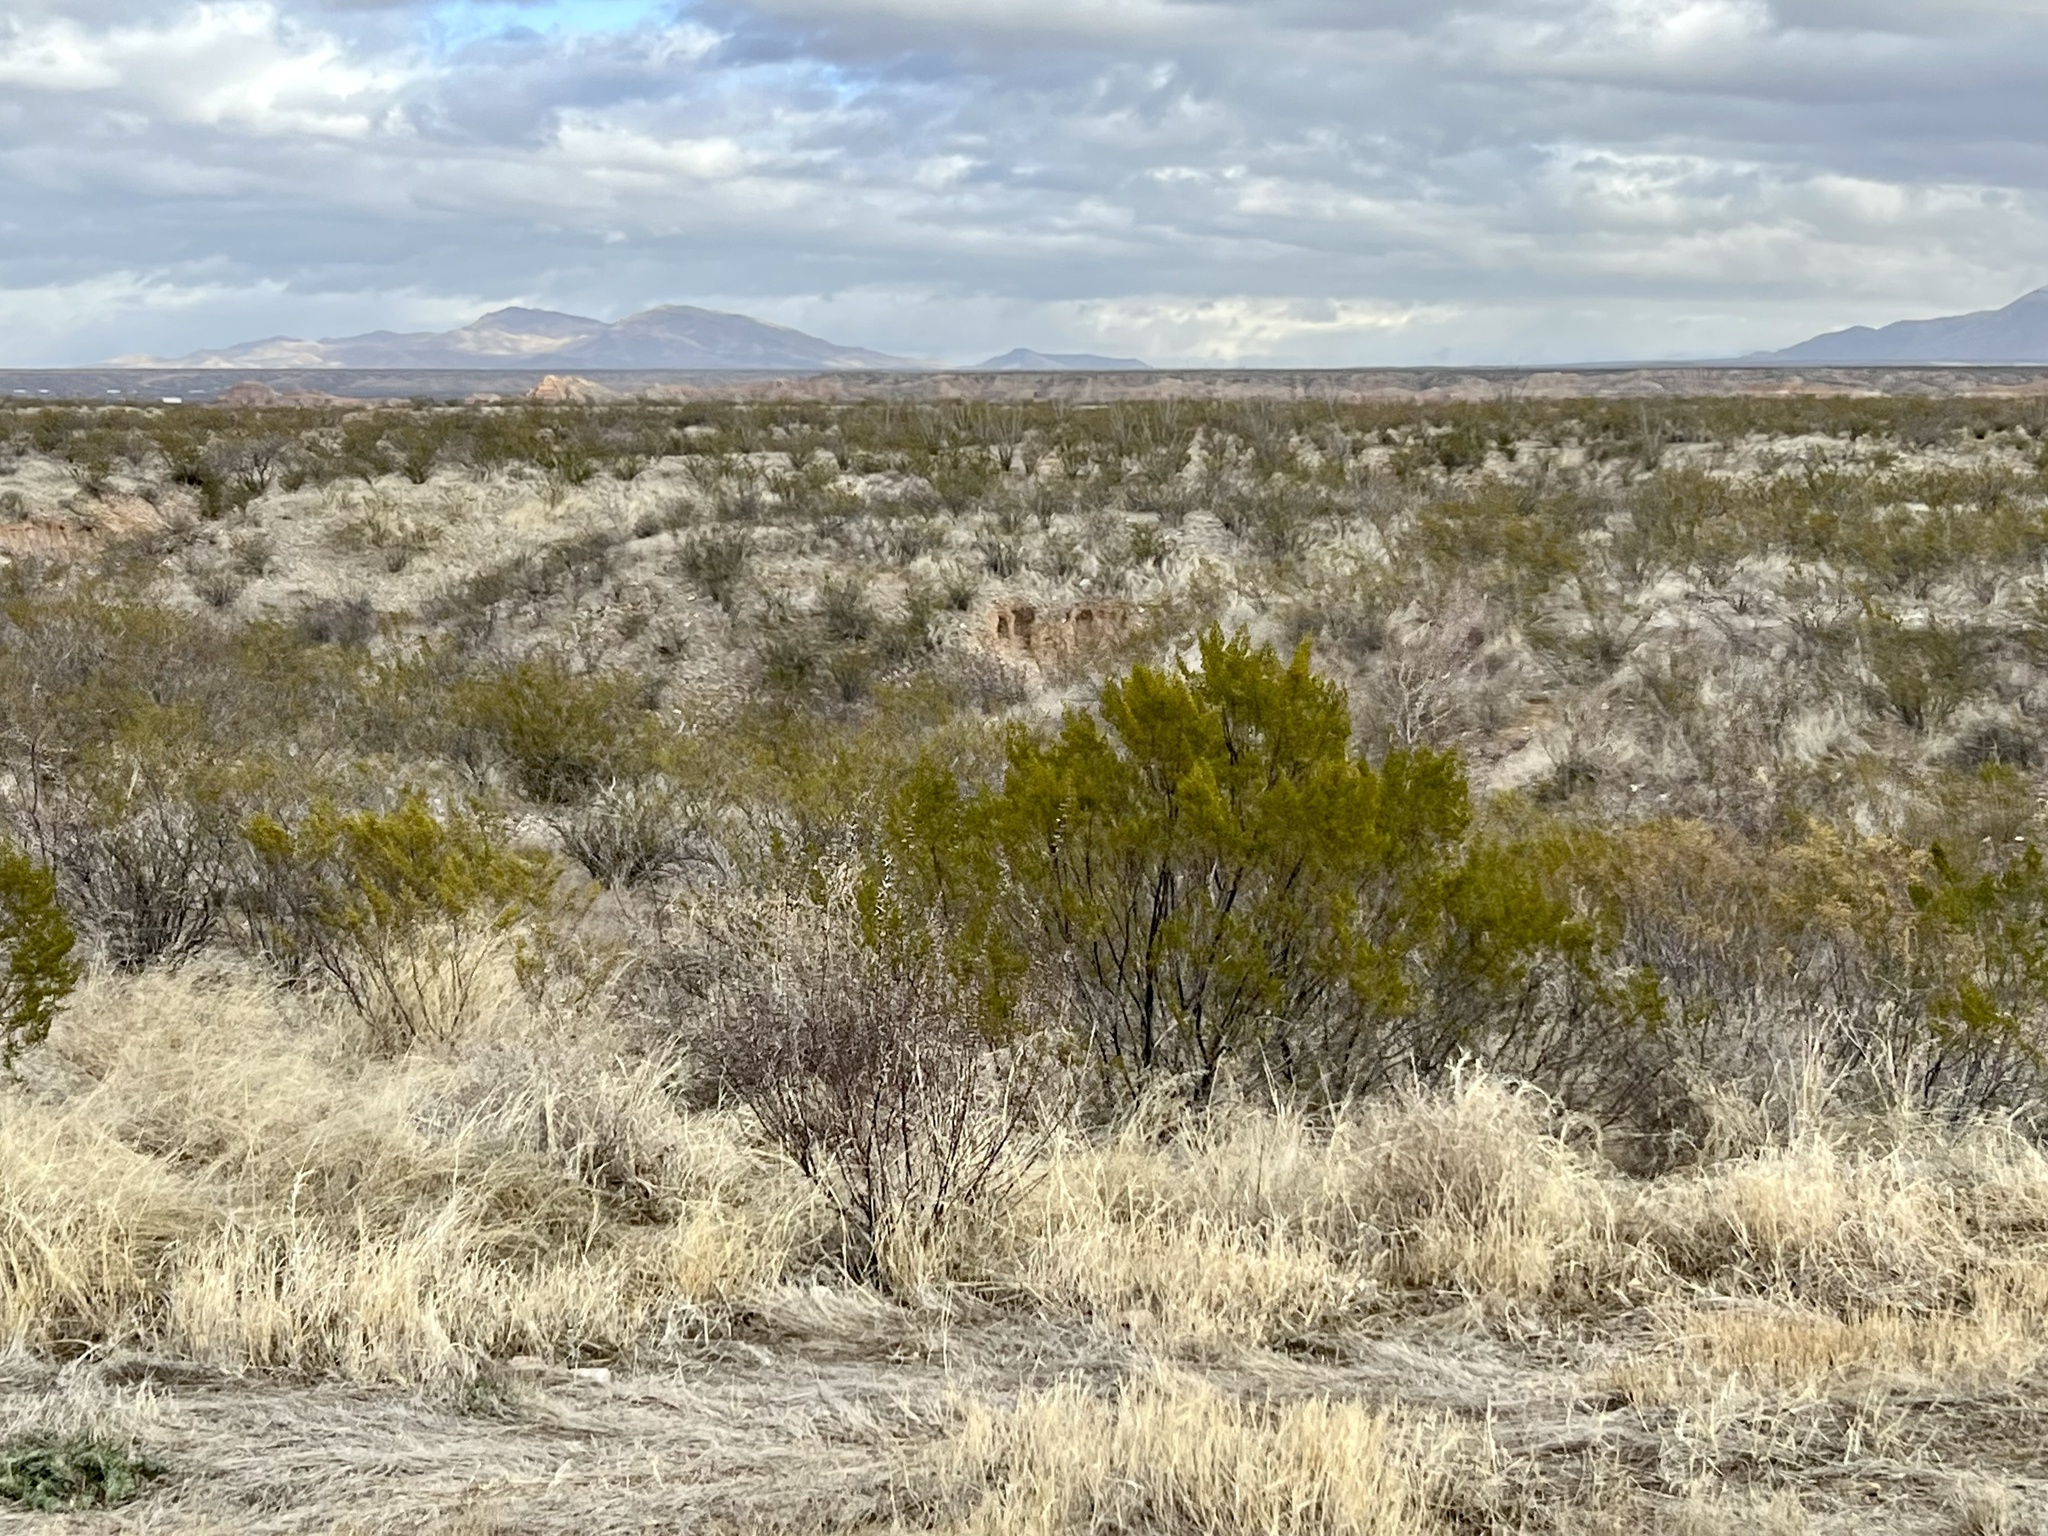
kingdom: Plantae
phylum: Tracheophyta
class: Magnoliopsida
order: Zygophyllales
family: Zygophyllaceae
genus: Larrea
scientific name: Larrea tridentata
